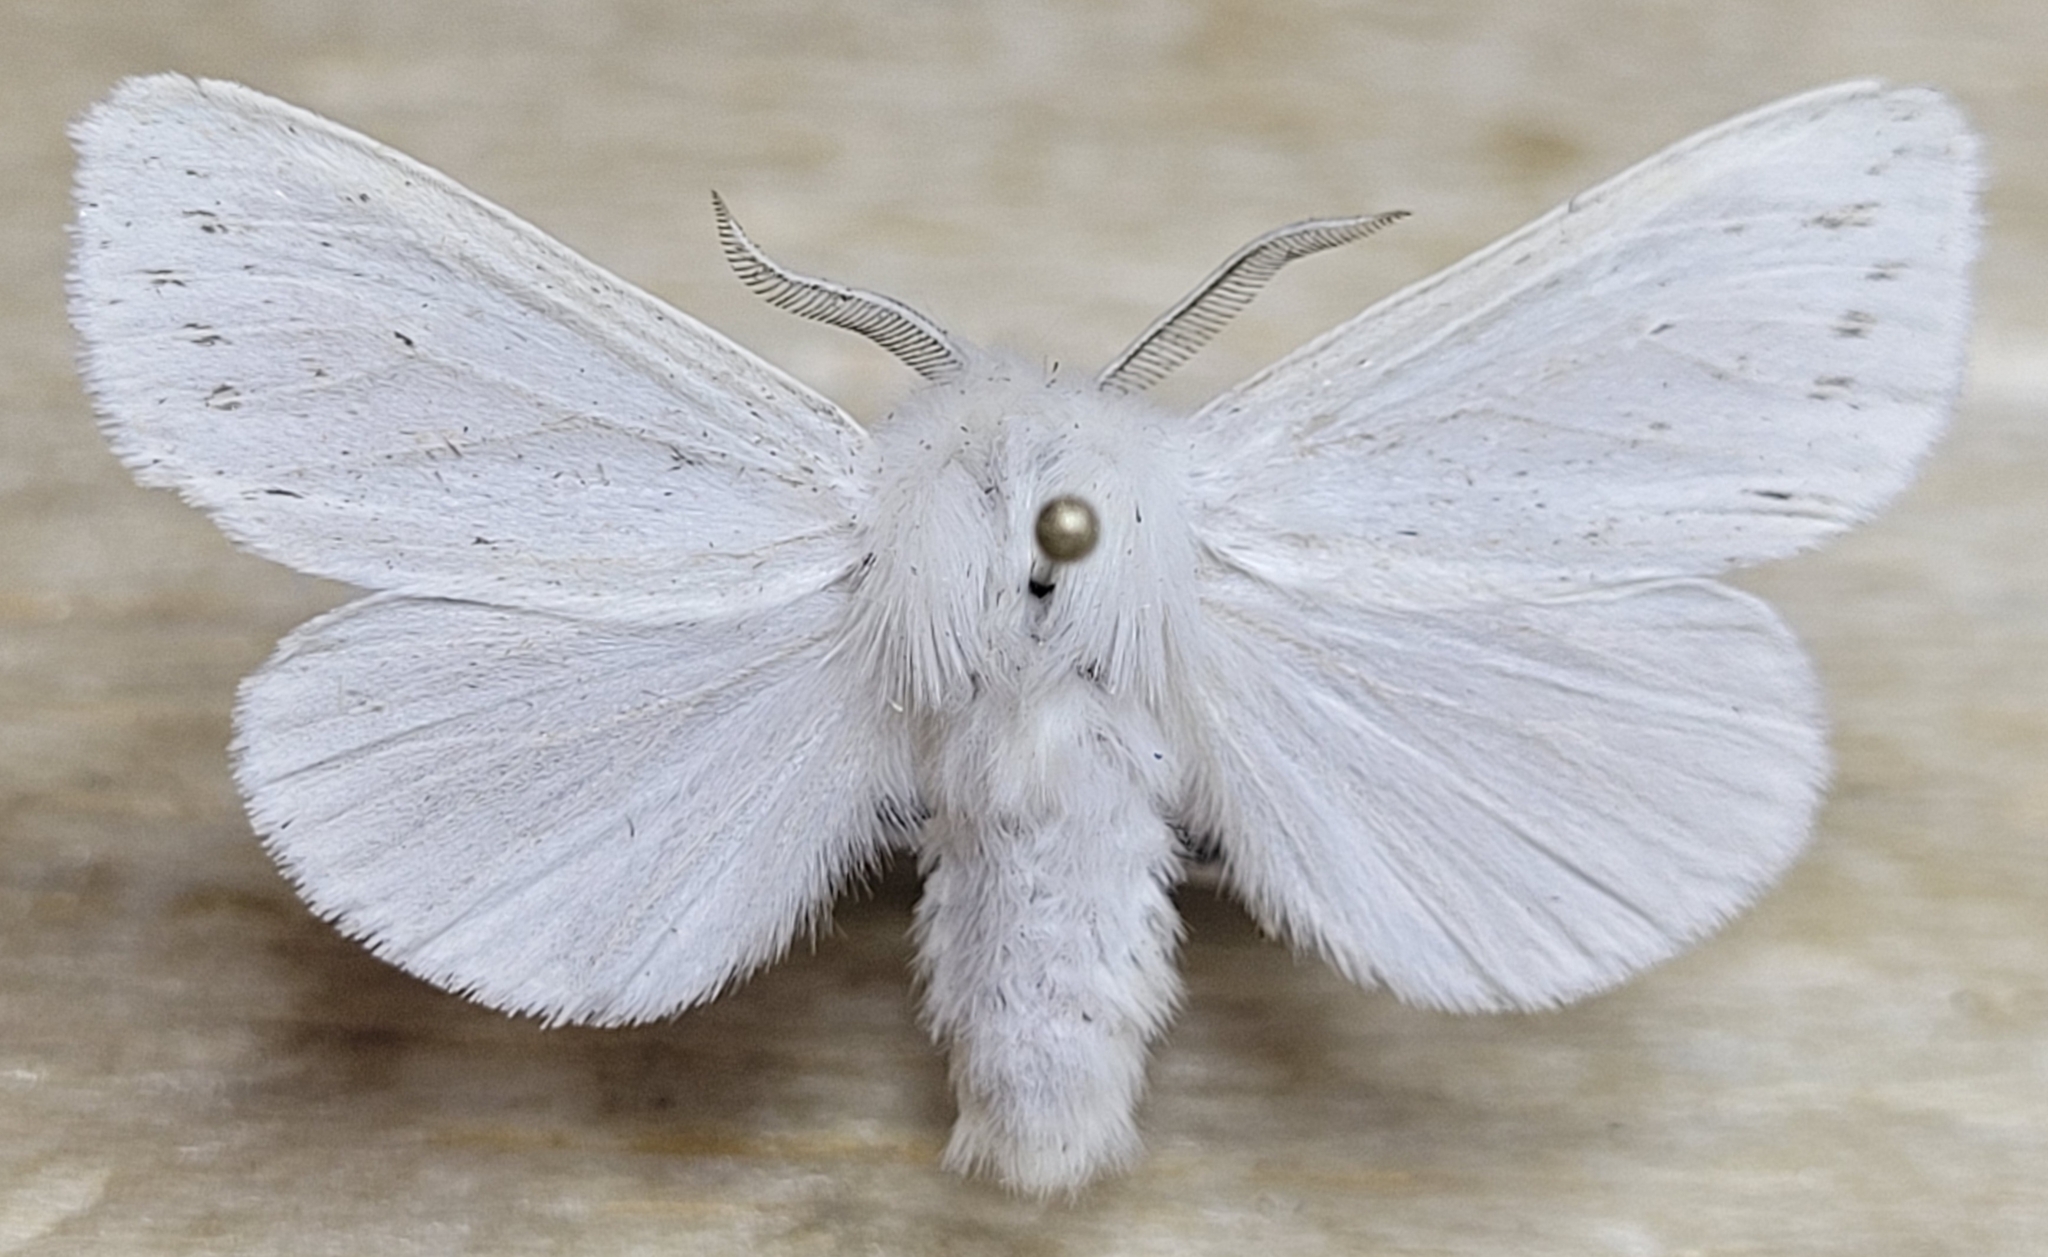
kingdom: Animalia
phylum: Arthropoda
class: Insecta
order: Lepidoptera
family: Erebidae
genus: Spilosoma
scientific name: Spilosoma congrua
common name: Agreeable tiger moth
